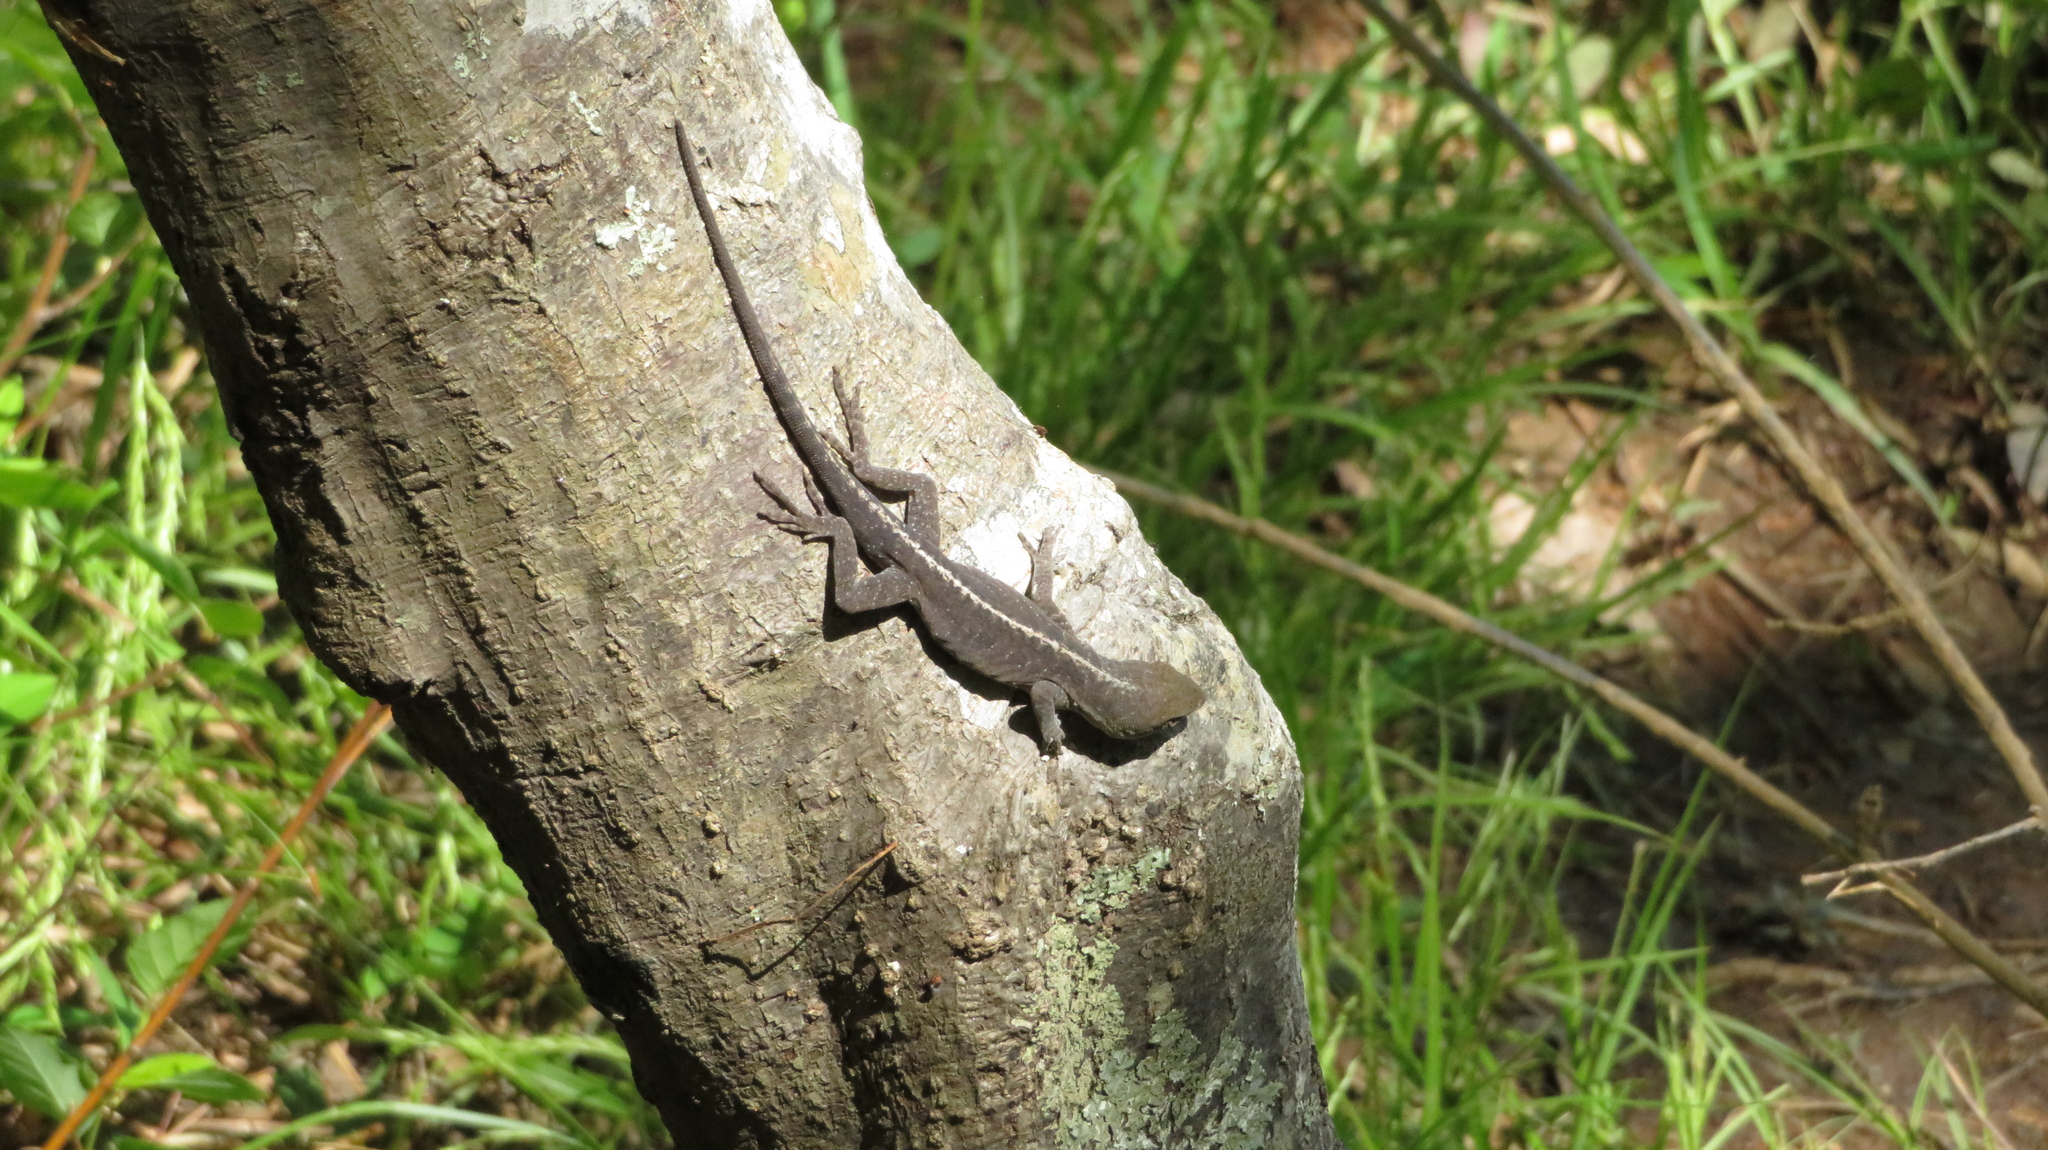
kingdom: Animalia
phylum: Chordata
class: Squamata
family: Dactyloidae
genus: Anolis
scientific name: Anolis carolinensis
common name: Green anole
